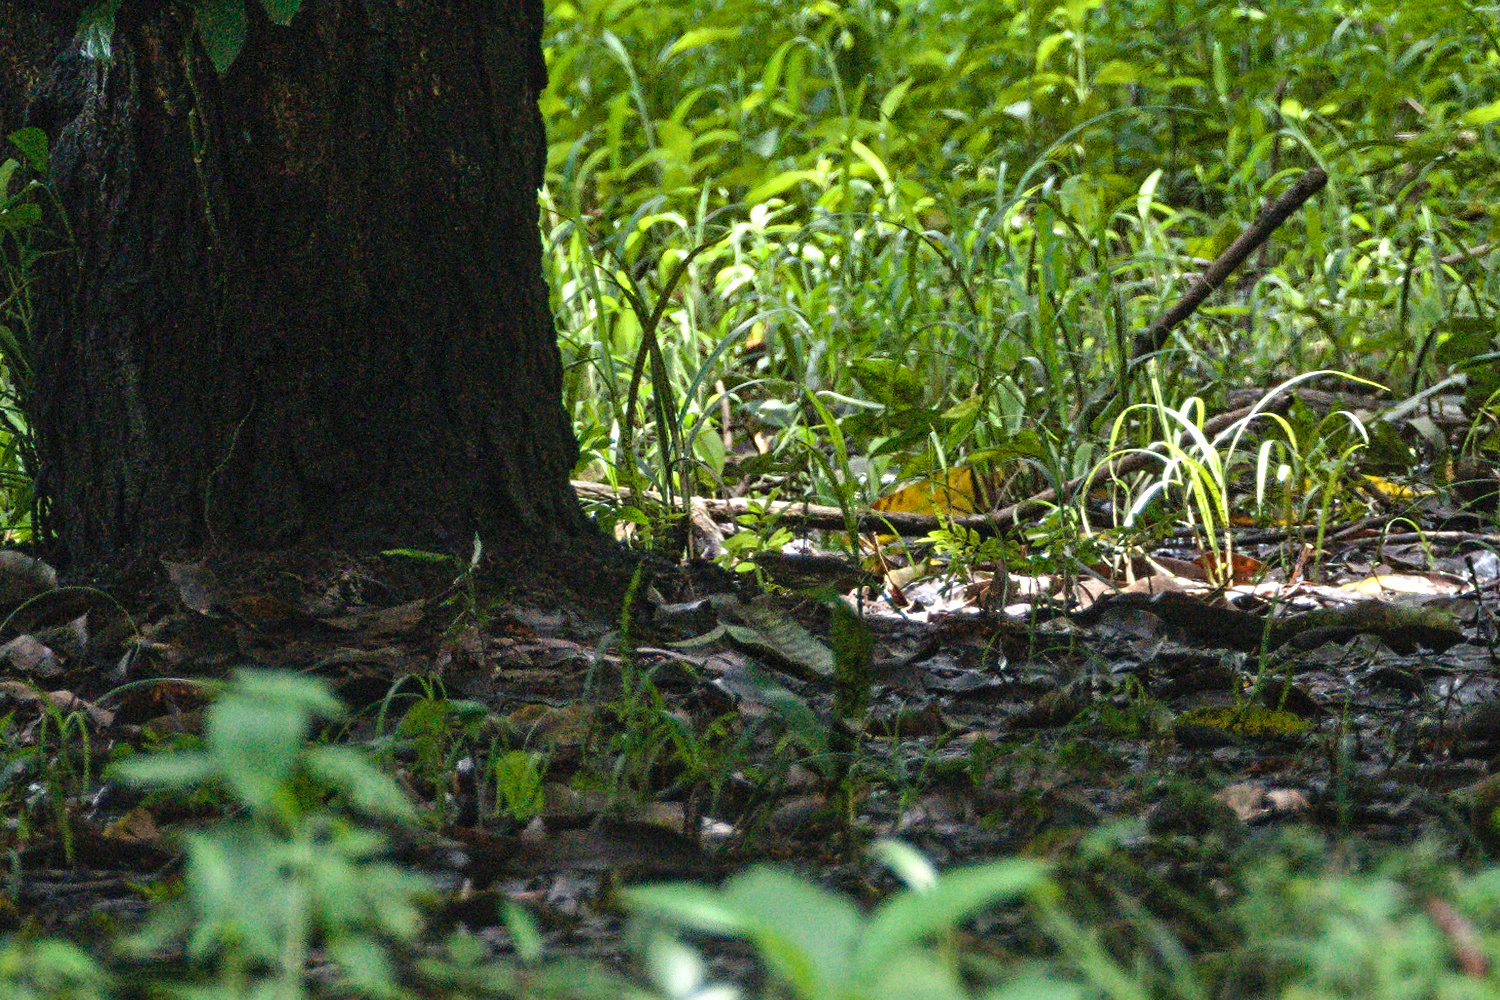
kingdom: Animalia
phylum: Chordata
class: Aves
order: Passeriformes
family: Parulidae
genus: Parkesia
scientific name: Parkesia noveboracensis
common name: Northern waterthrush
